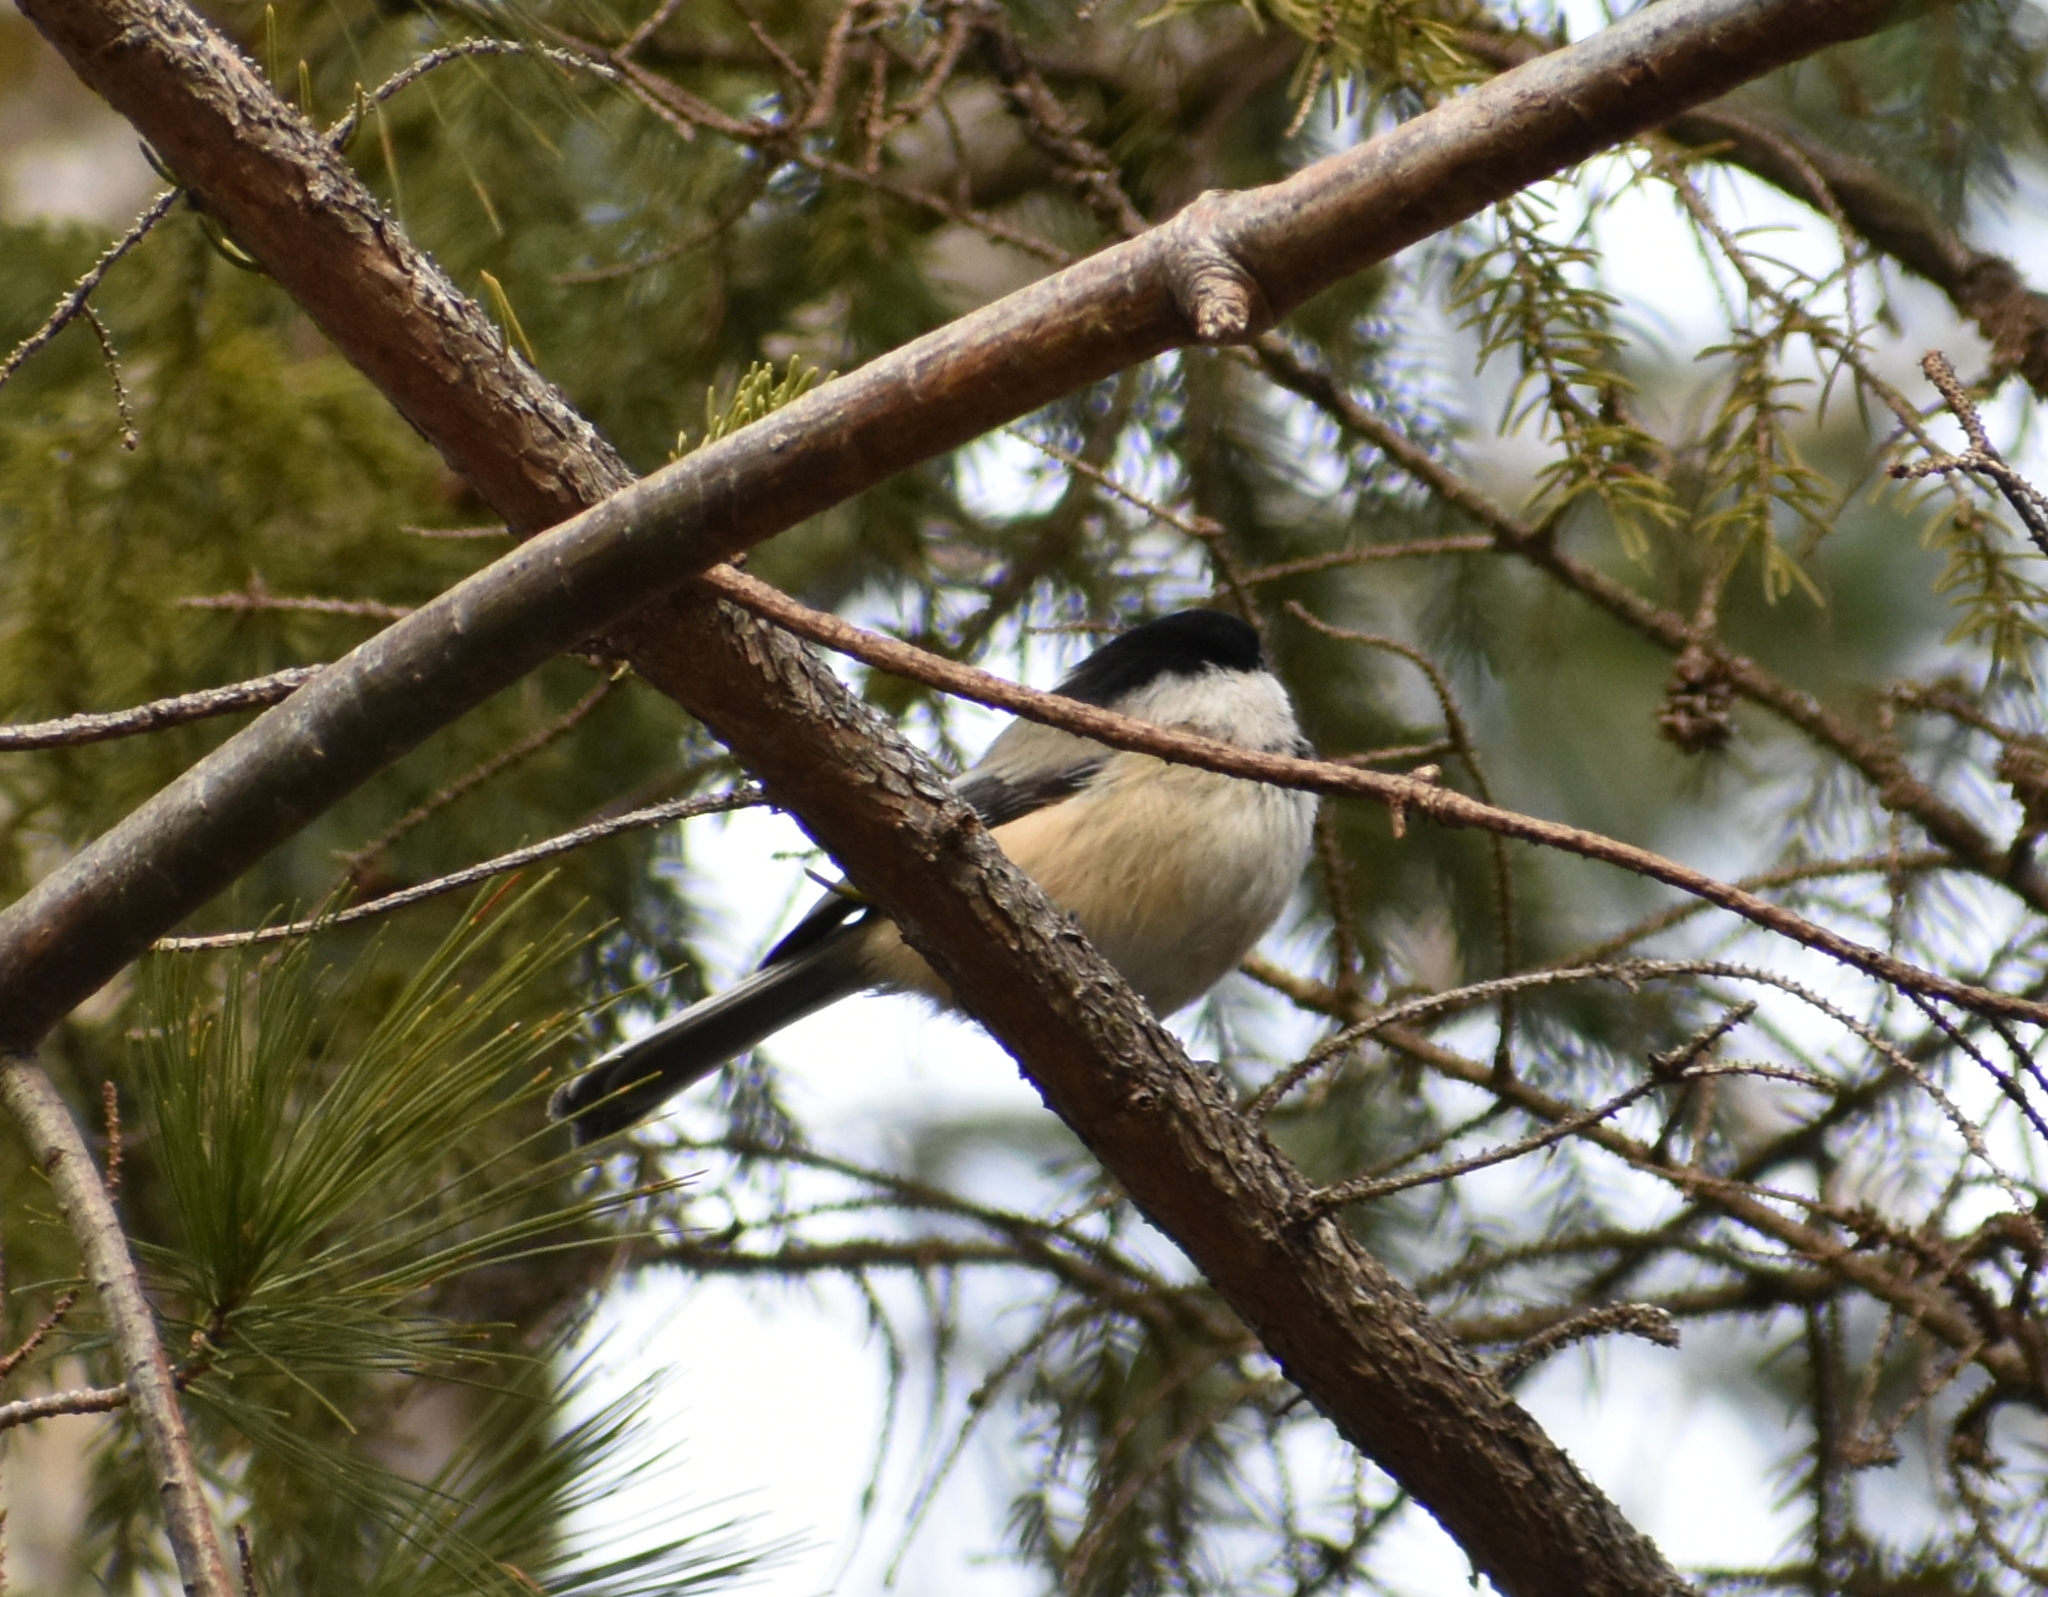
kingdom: Animalia
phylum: Chordata
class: Aves
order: Passeriformes
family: Paridae
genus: Poecile
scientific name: Poecile atricapillus
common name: Black-capped chickadee
